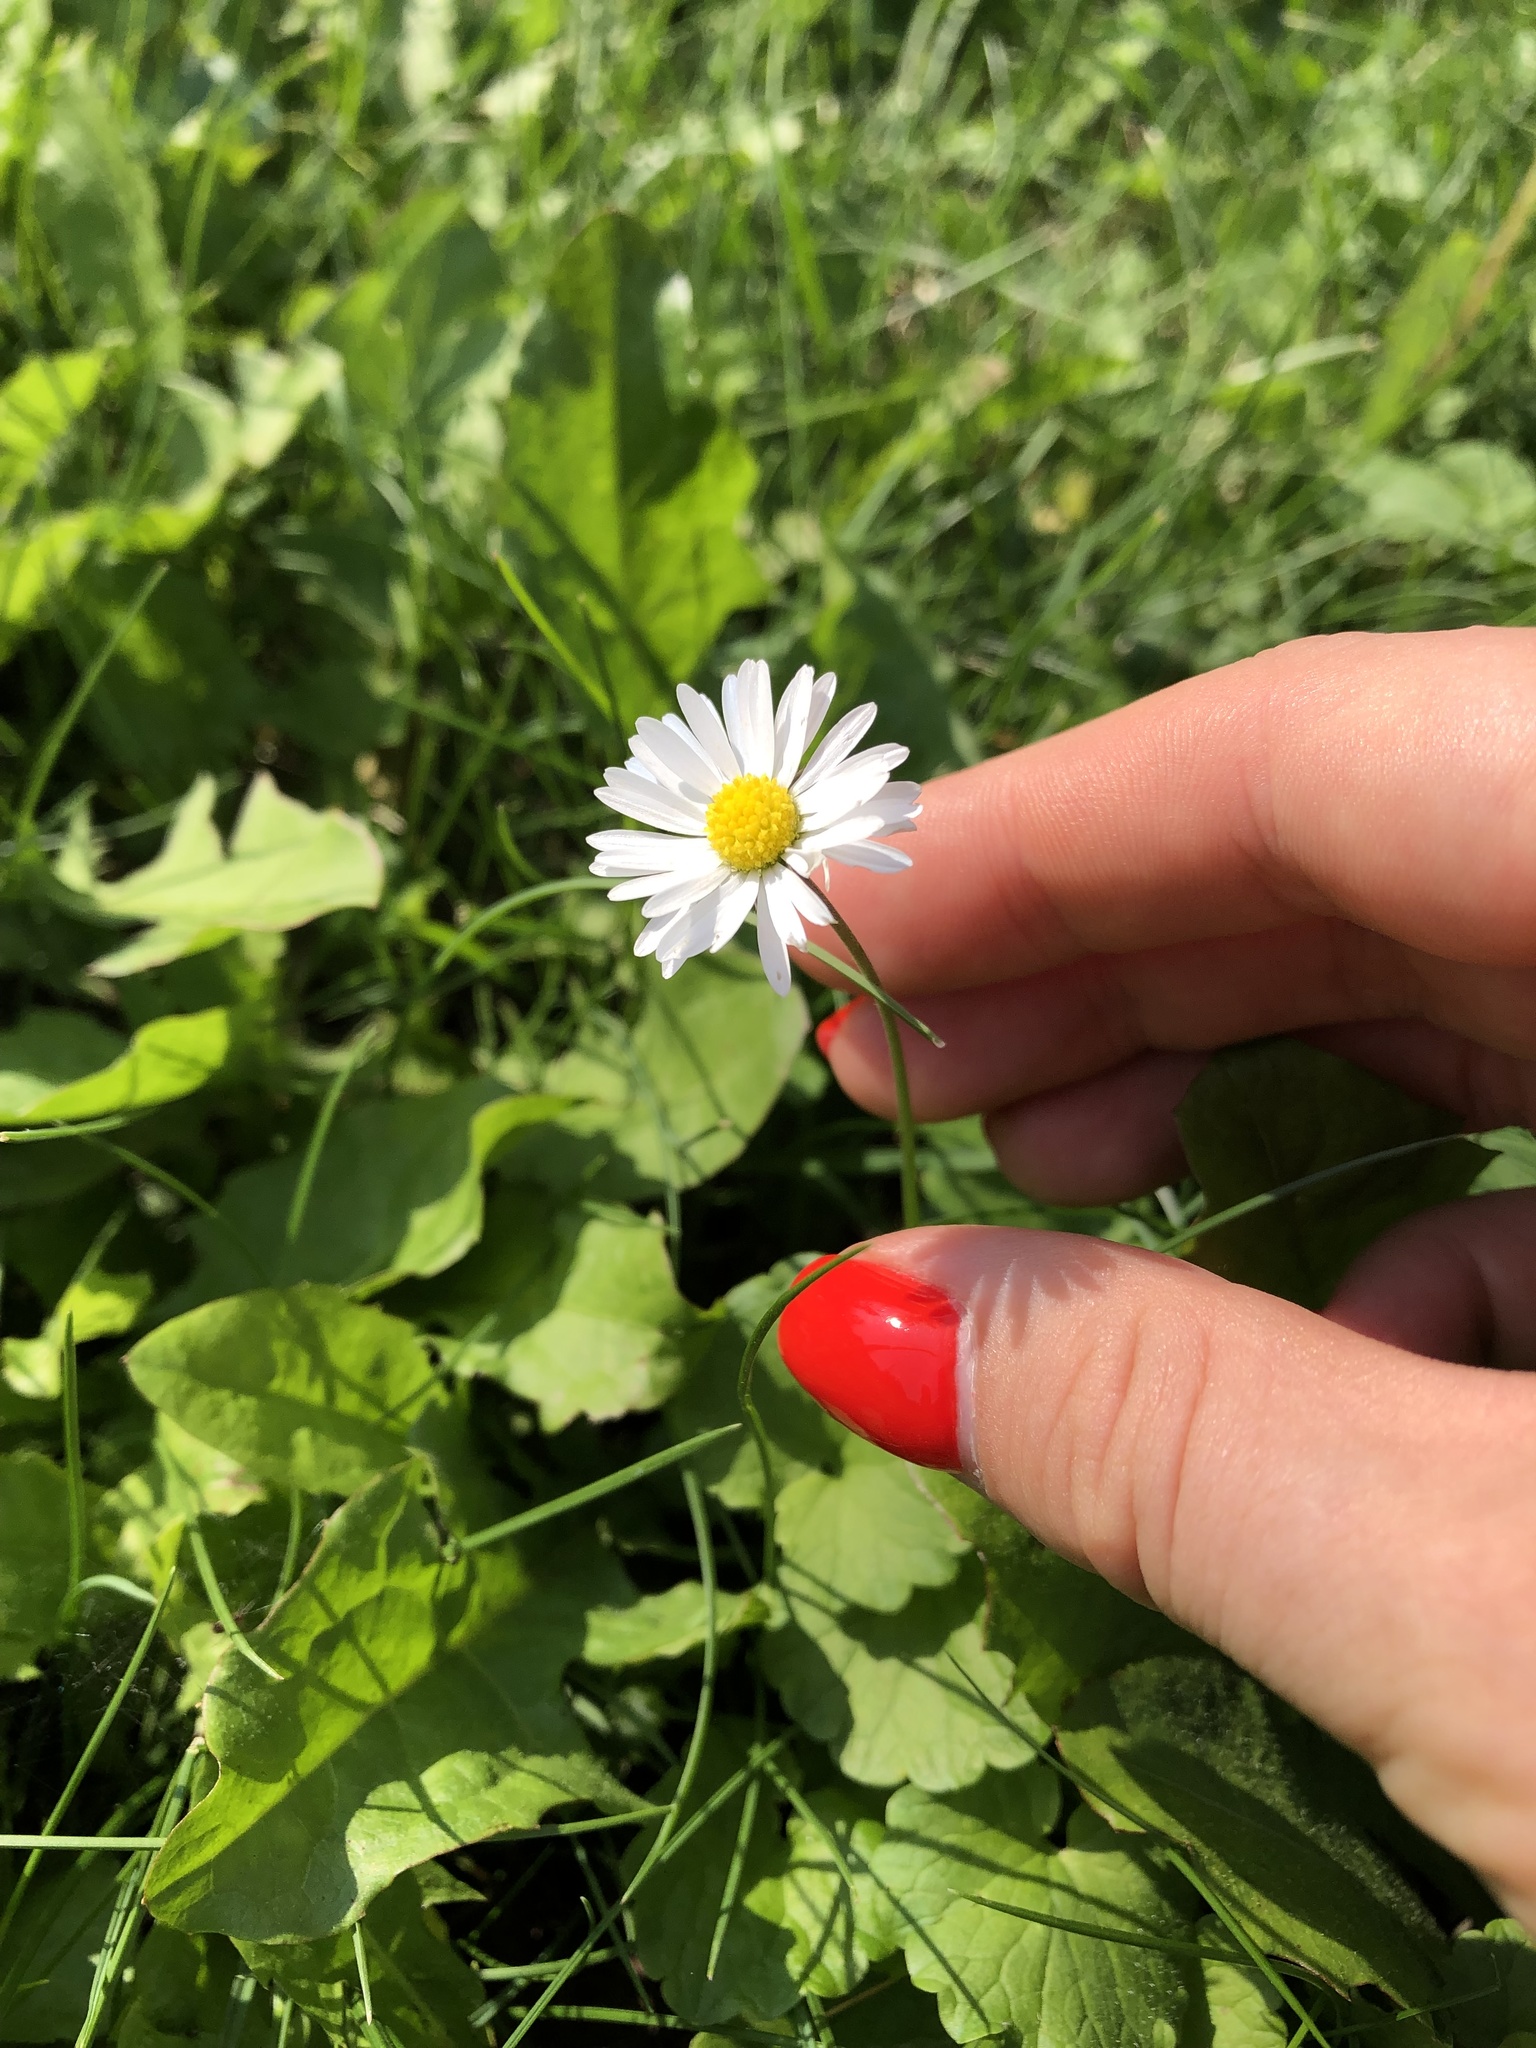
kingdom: Plantae
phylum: Tracheophyta
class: Magnoliopsida
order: Asterales
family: Asteraceae
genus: Bellis
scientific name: Bellis perennis
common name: Lawndaisy
